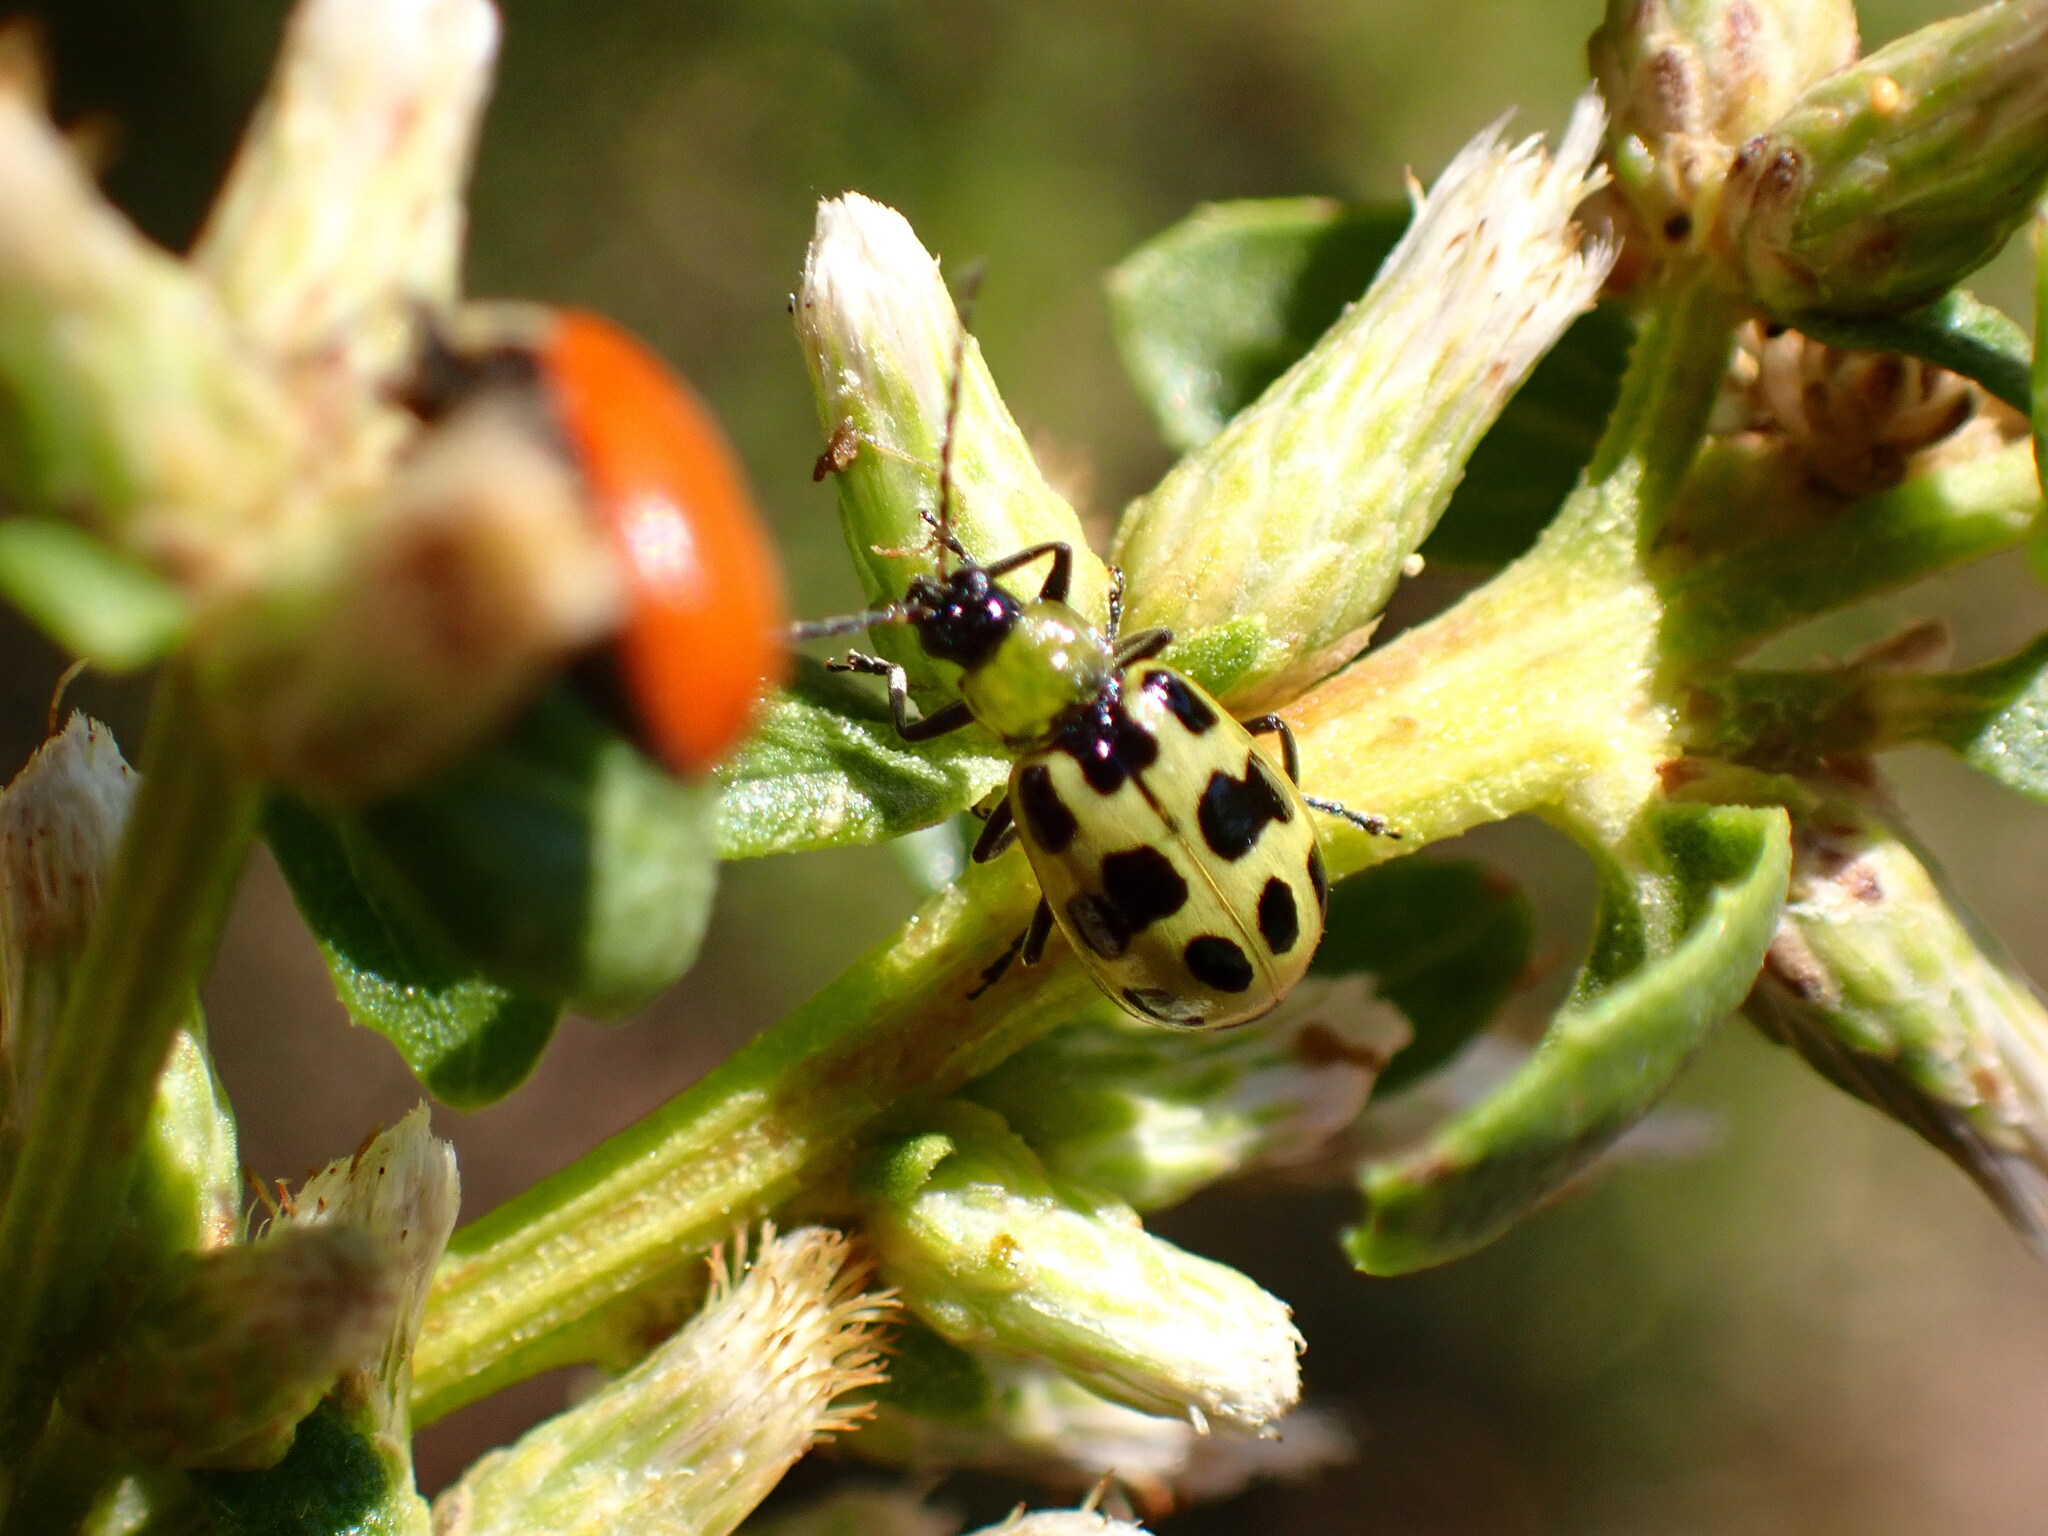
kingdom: Animalia
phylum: Arthropoda
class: Insecta
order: Coleoptera
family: Chrysomelidae
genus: Diabrotica
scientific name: Diabrotica undecimpunctata
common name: Spotted cucumber beetle
